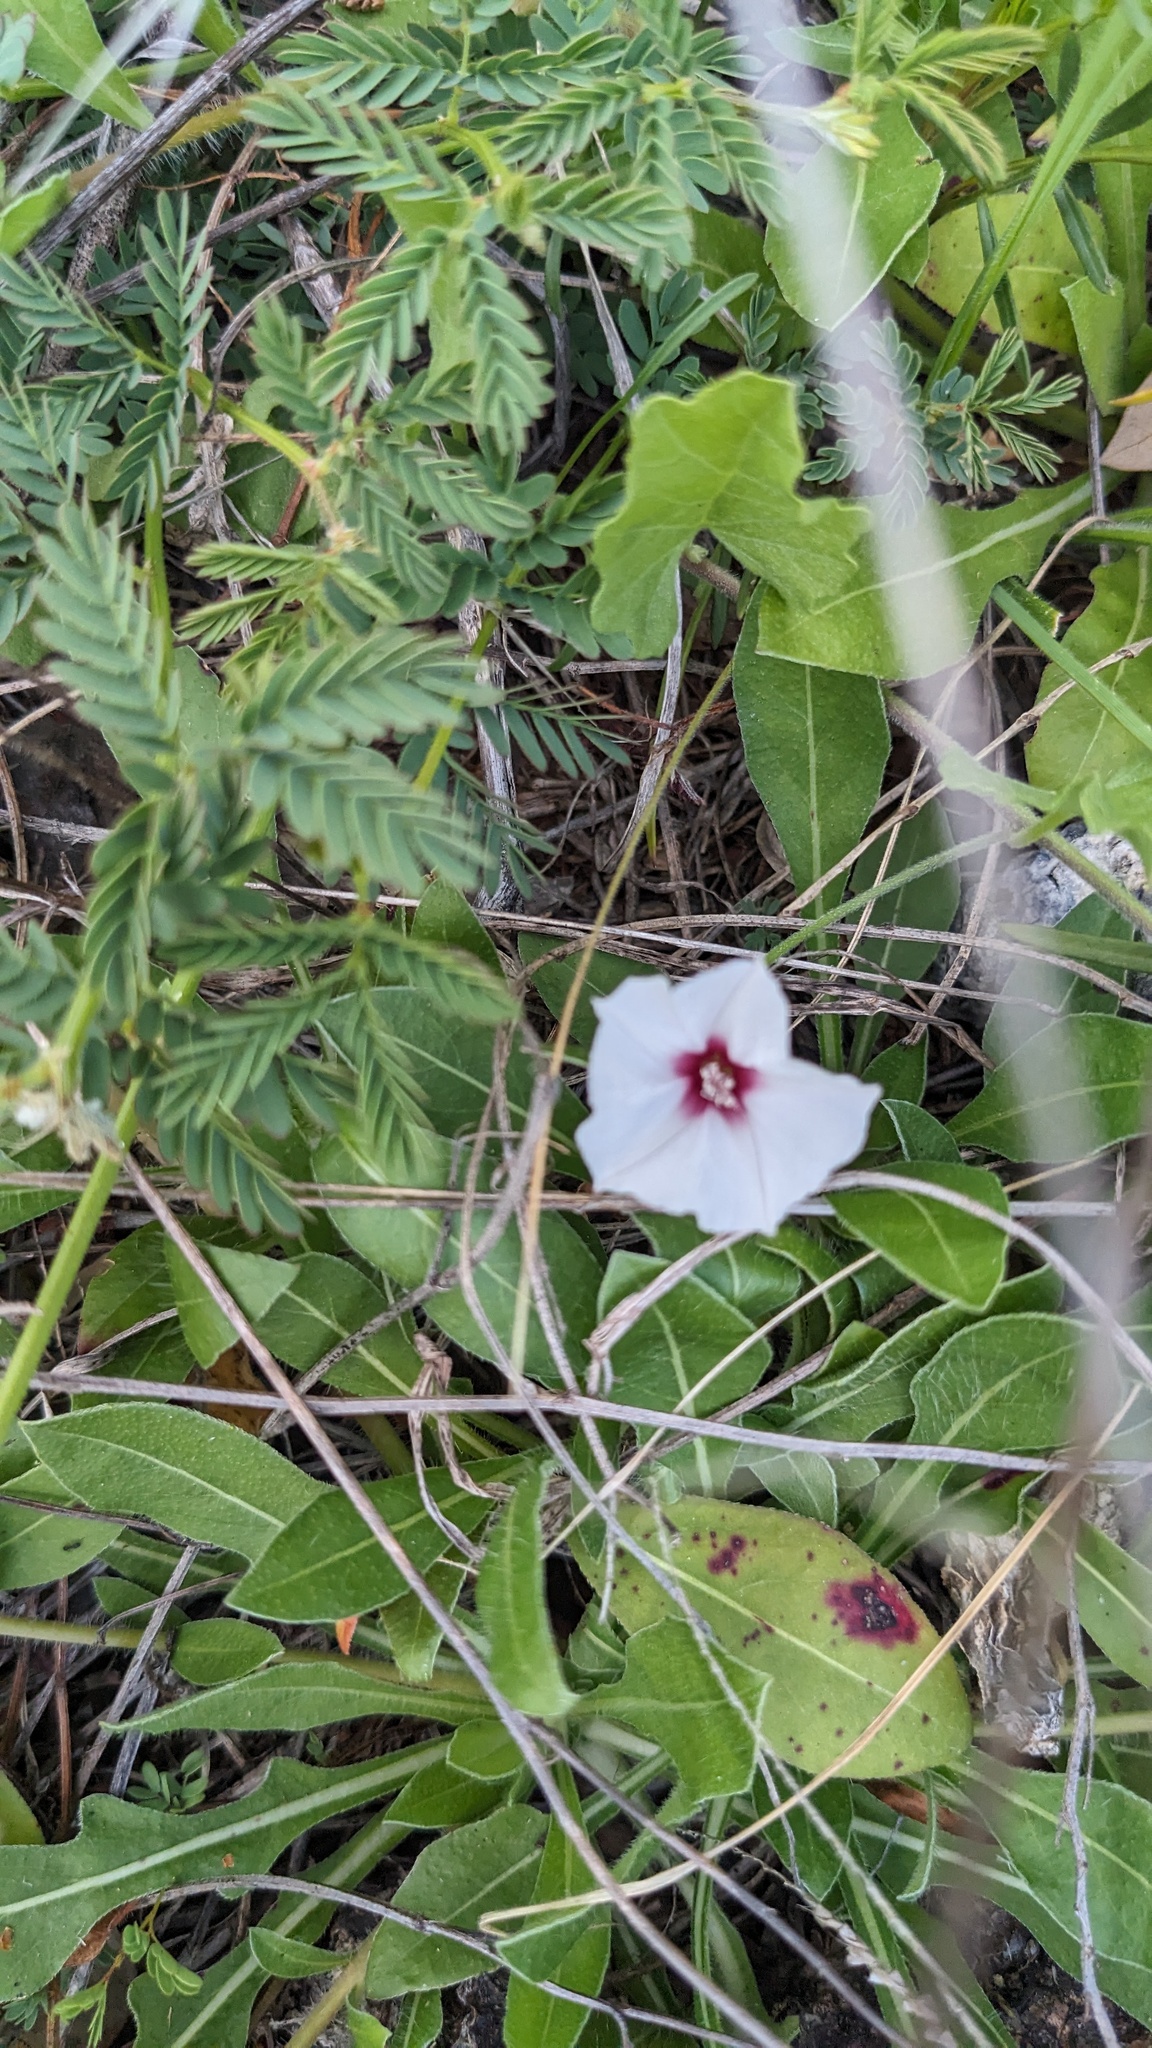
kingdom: Plantae
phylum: Tracheophyta
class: Magnoliopsida
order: Solanales
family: Convolvulaceae
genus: Convolvulus
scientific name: Convolvulus equitans
